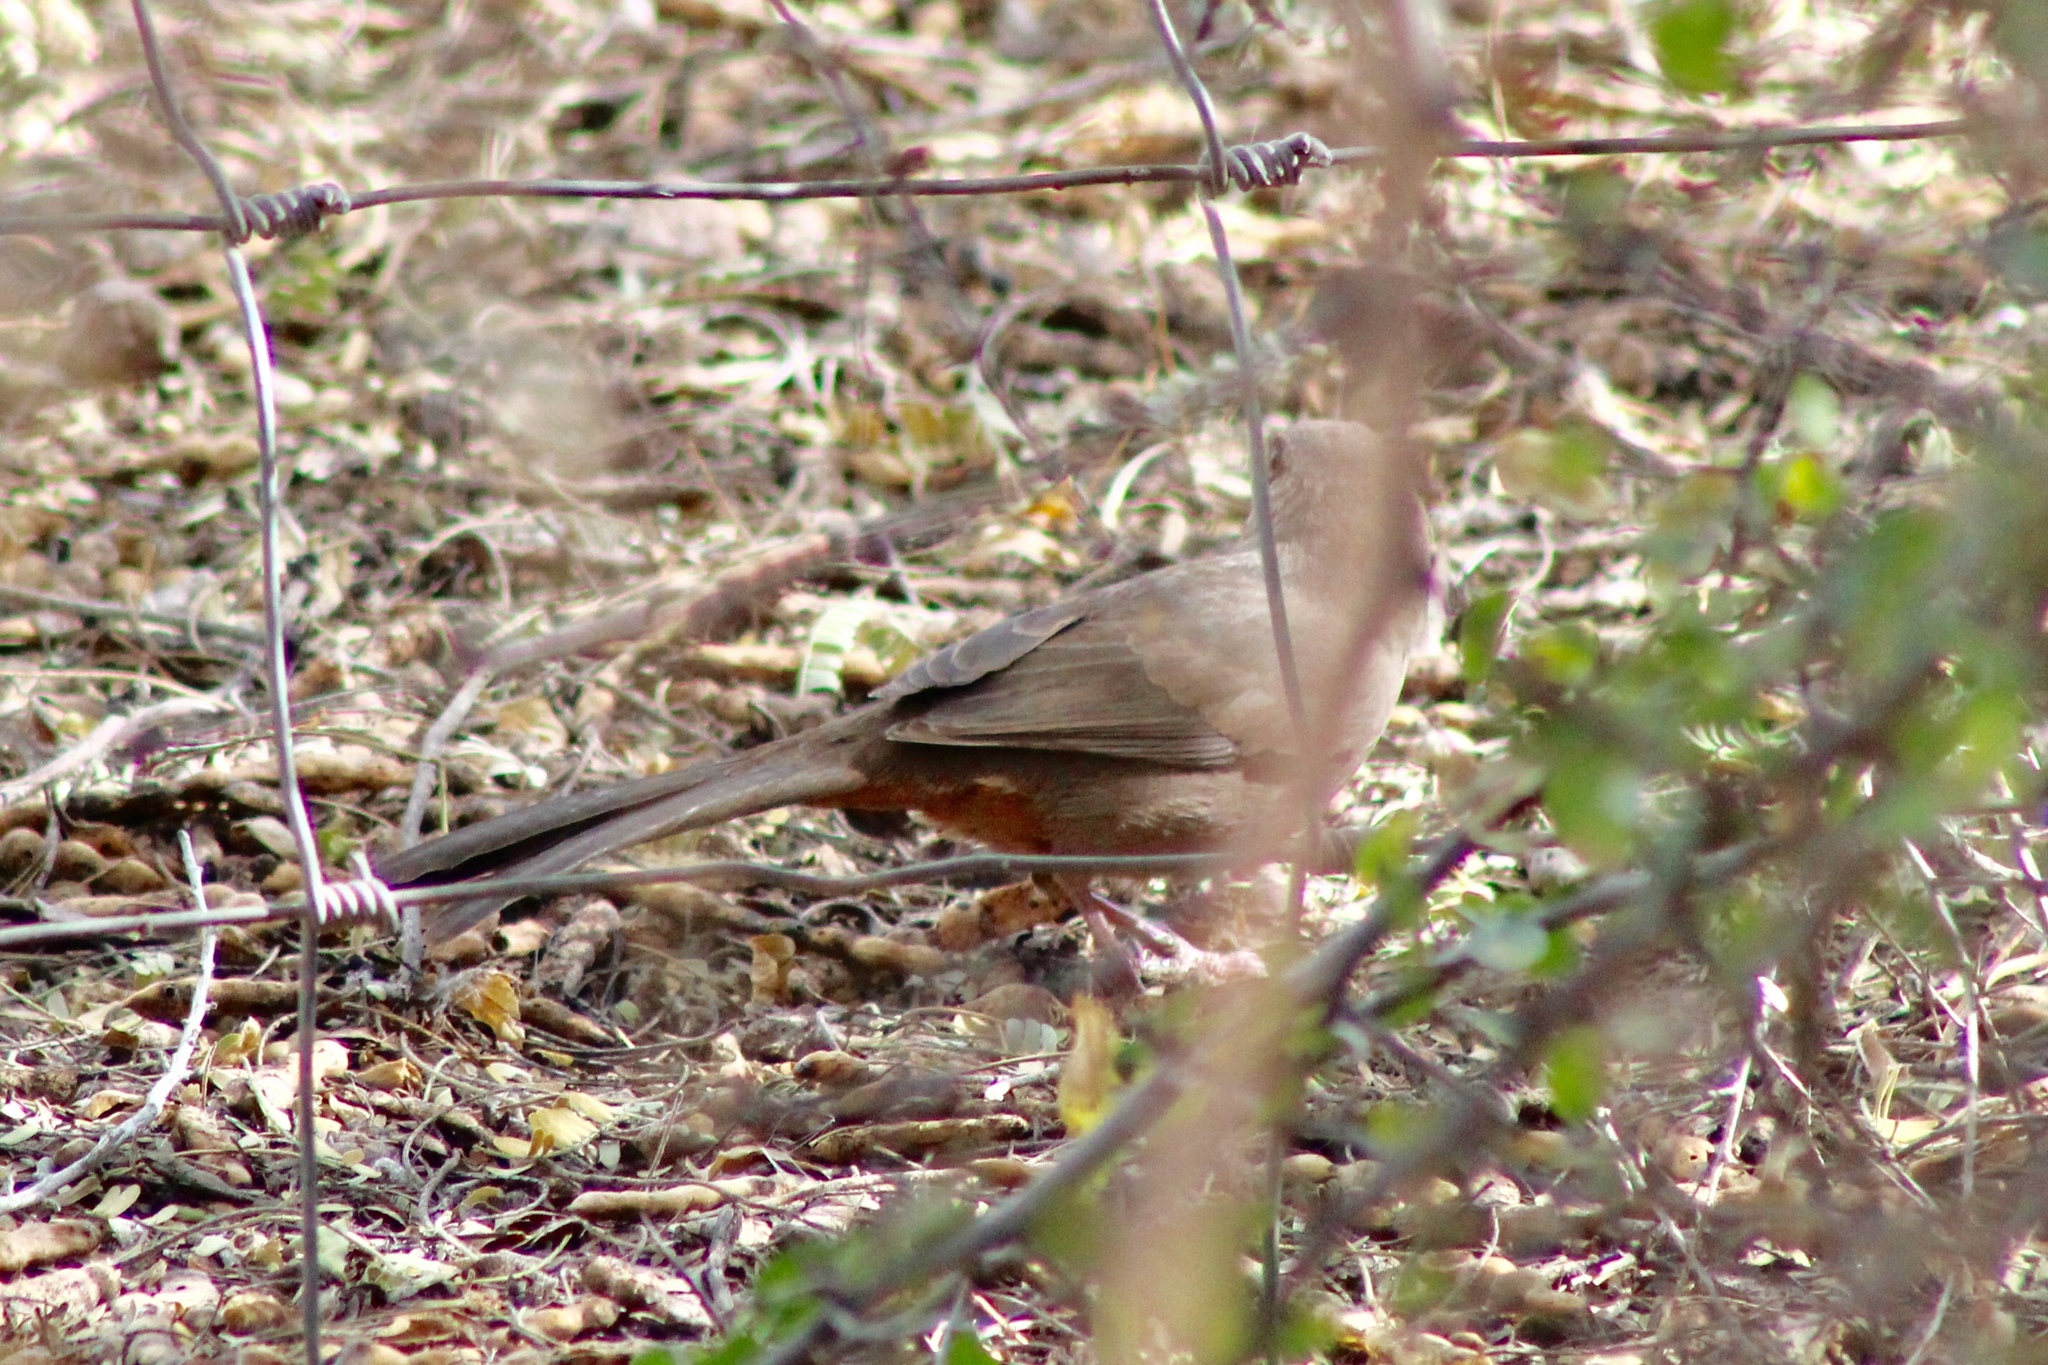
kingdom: Animalia
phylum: Chordata
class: Aves
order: Passeriformes
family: Passerellidae
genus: Melozone
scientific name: Melozone aberti
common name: Abert's towhee
